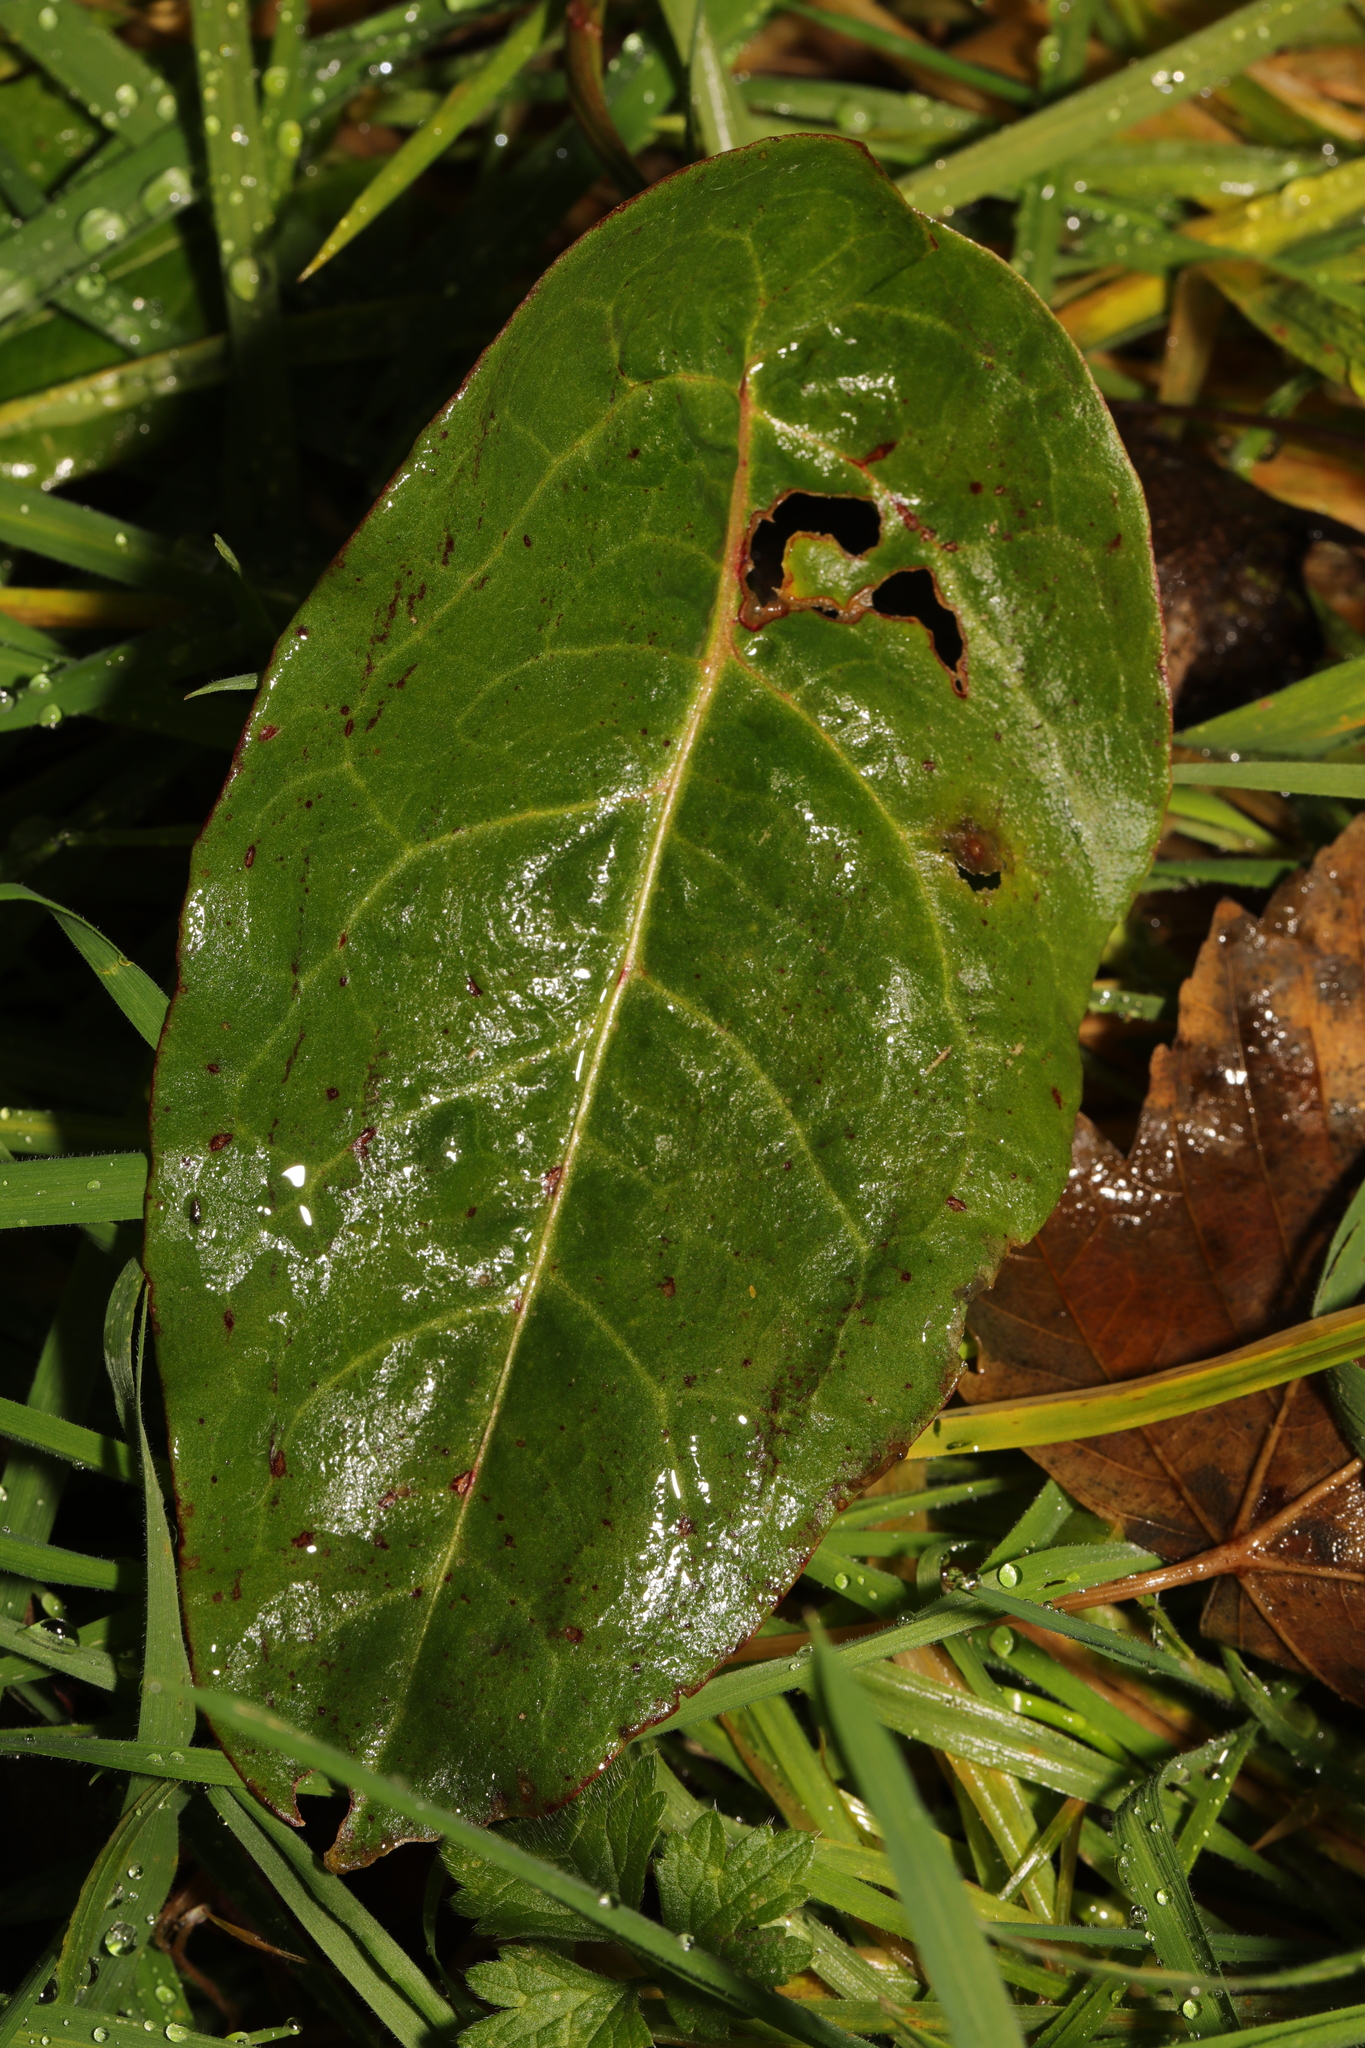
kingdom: Plantae
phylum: Tracheophyta
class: Magnoliopsida
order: Caryophyllales
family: Polygonaceae
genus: Rumex
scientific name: Rumex obtusifolius
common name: Bitter dock
